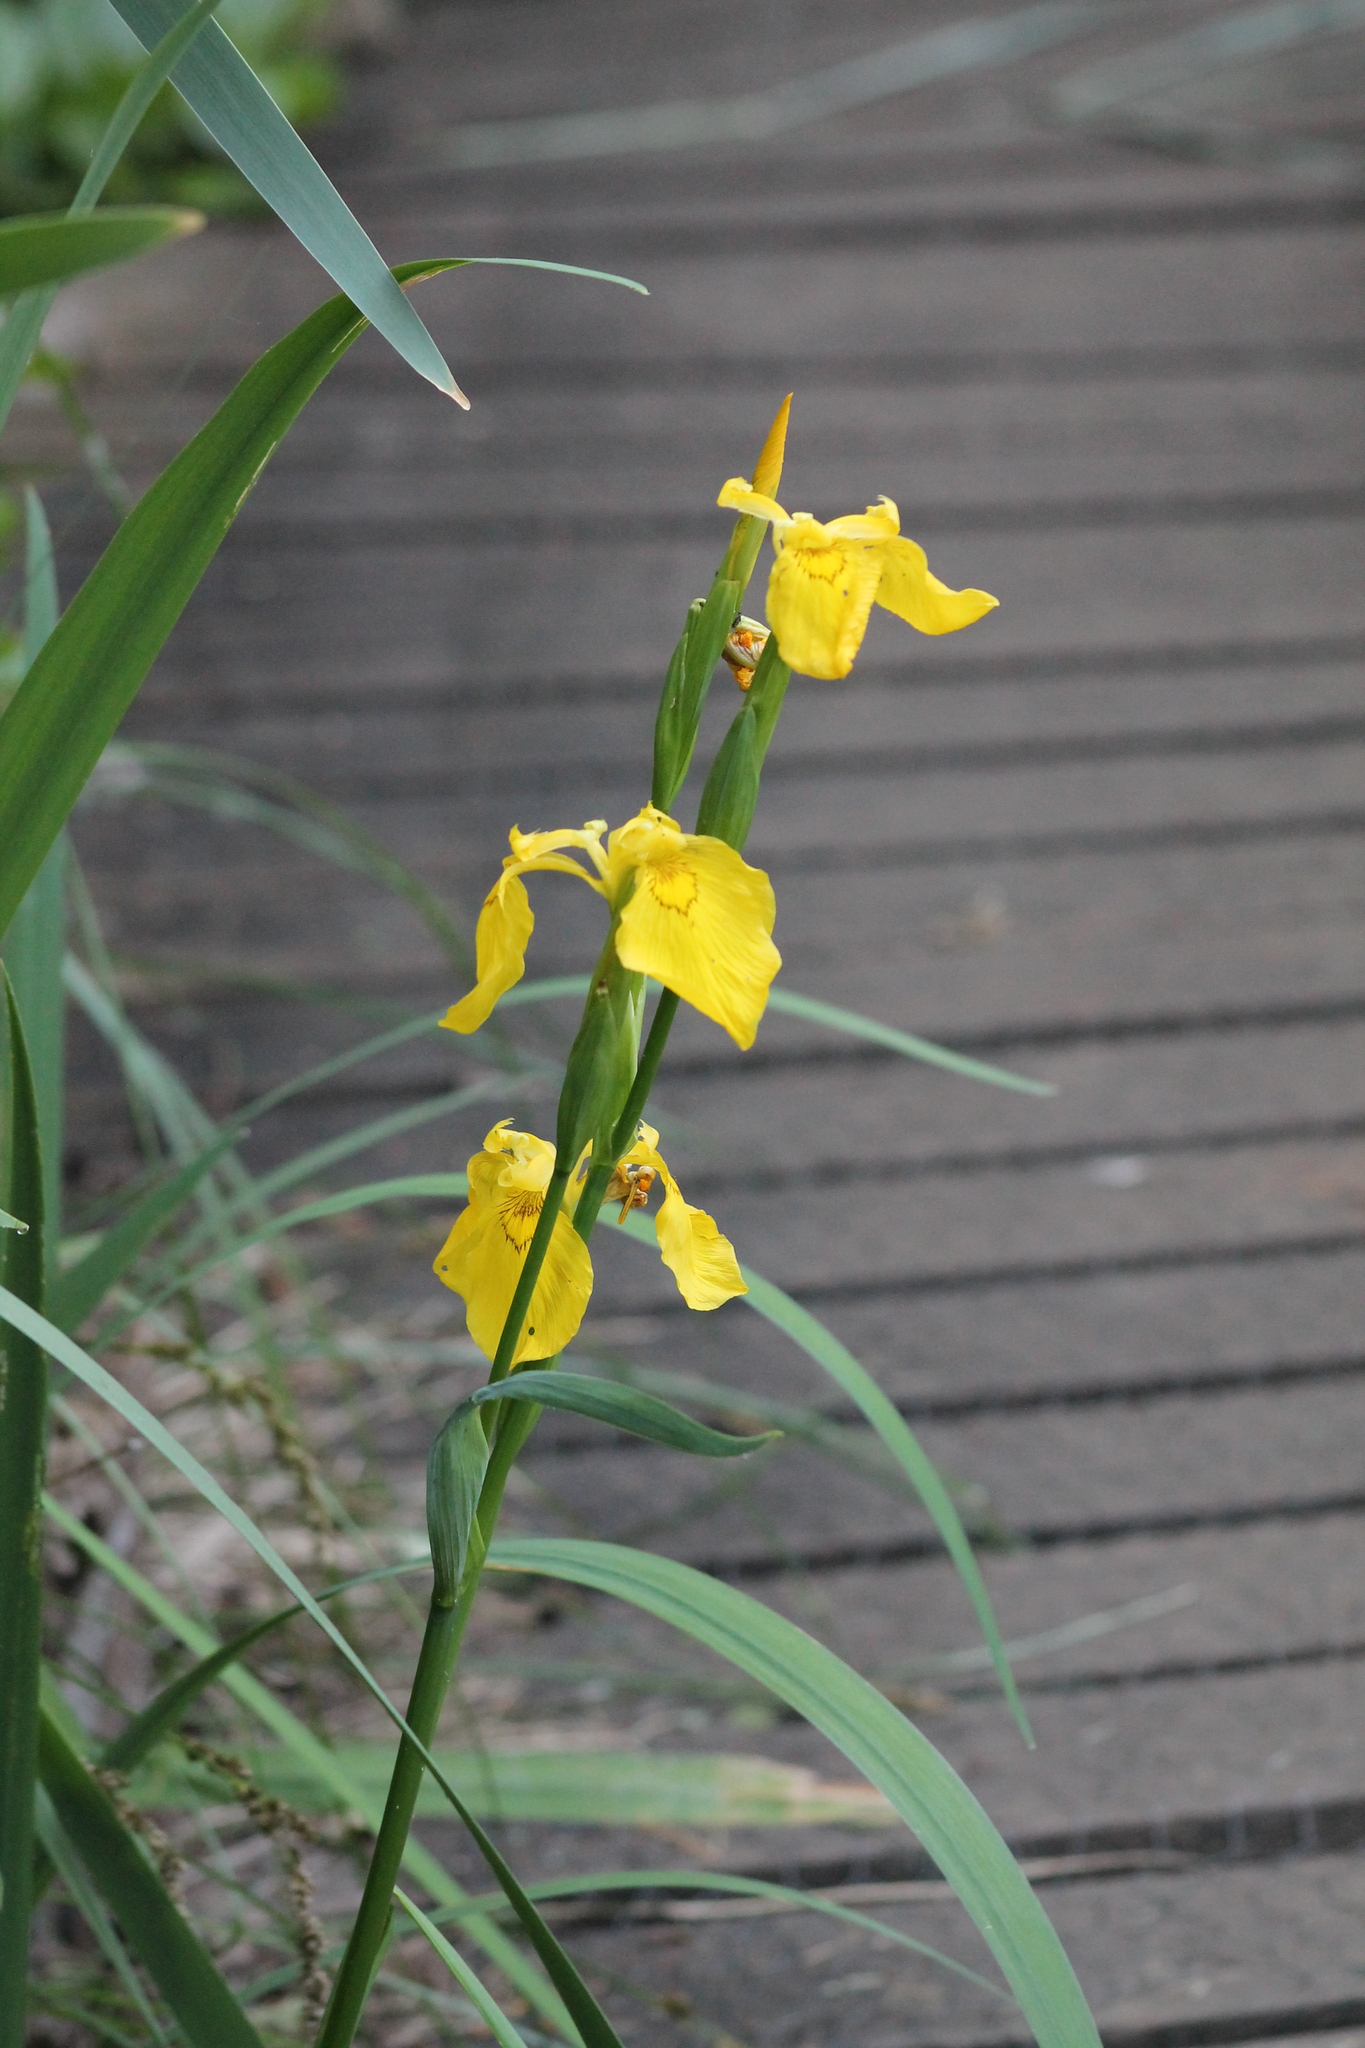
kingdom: Plantae
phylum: Tracheophyta
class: Liliopsida
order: Asparagales
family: Iridaceae
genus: Iris
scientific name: Iris pseudacorus
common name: Yellow flag
